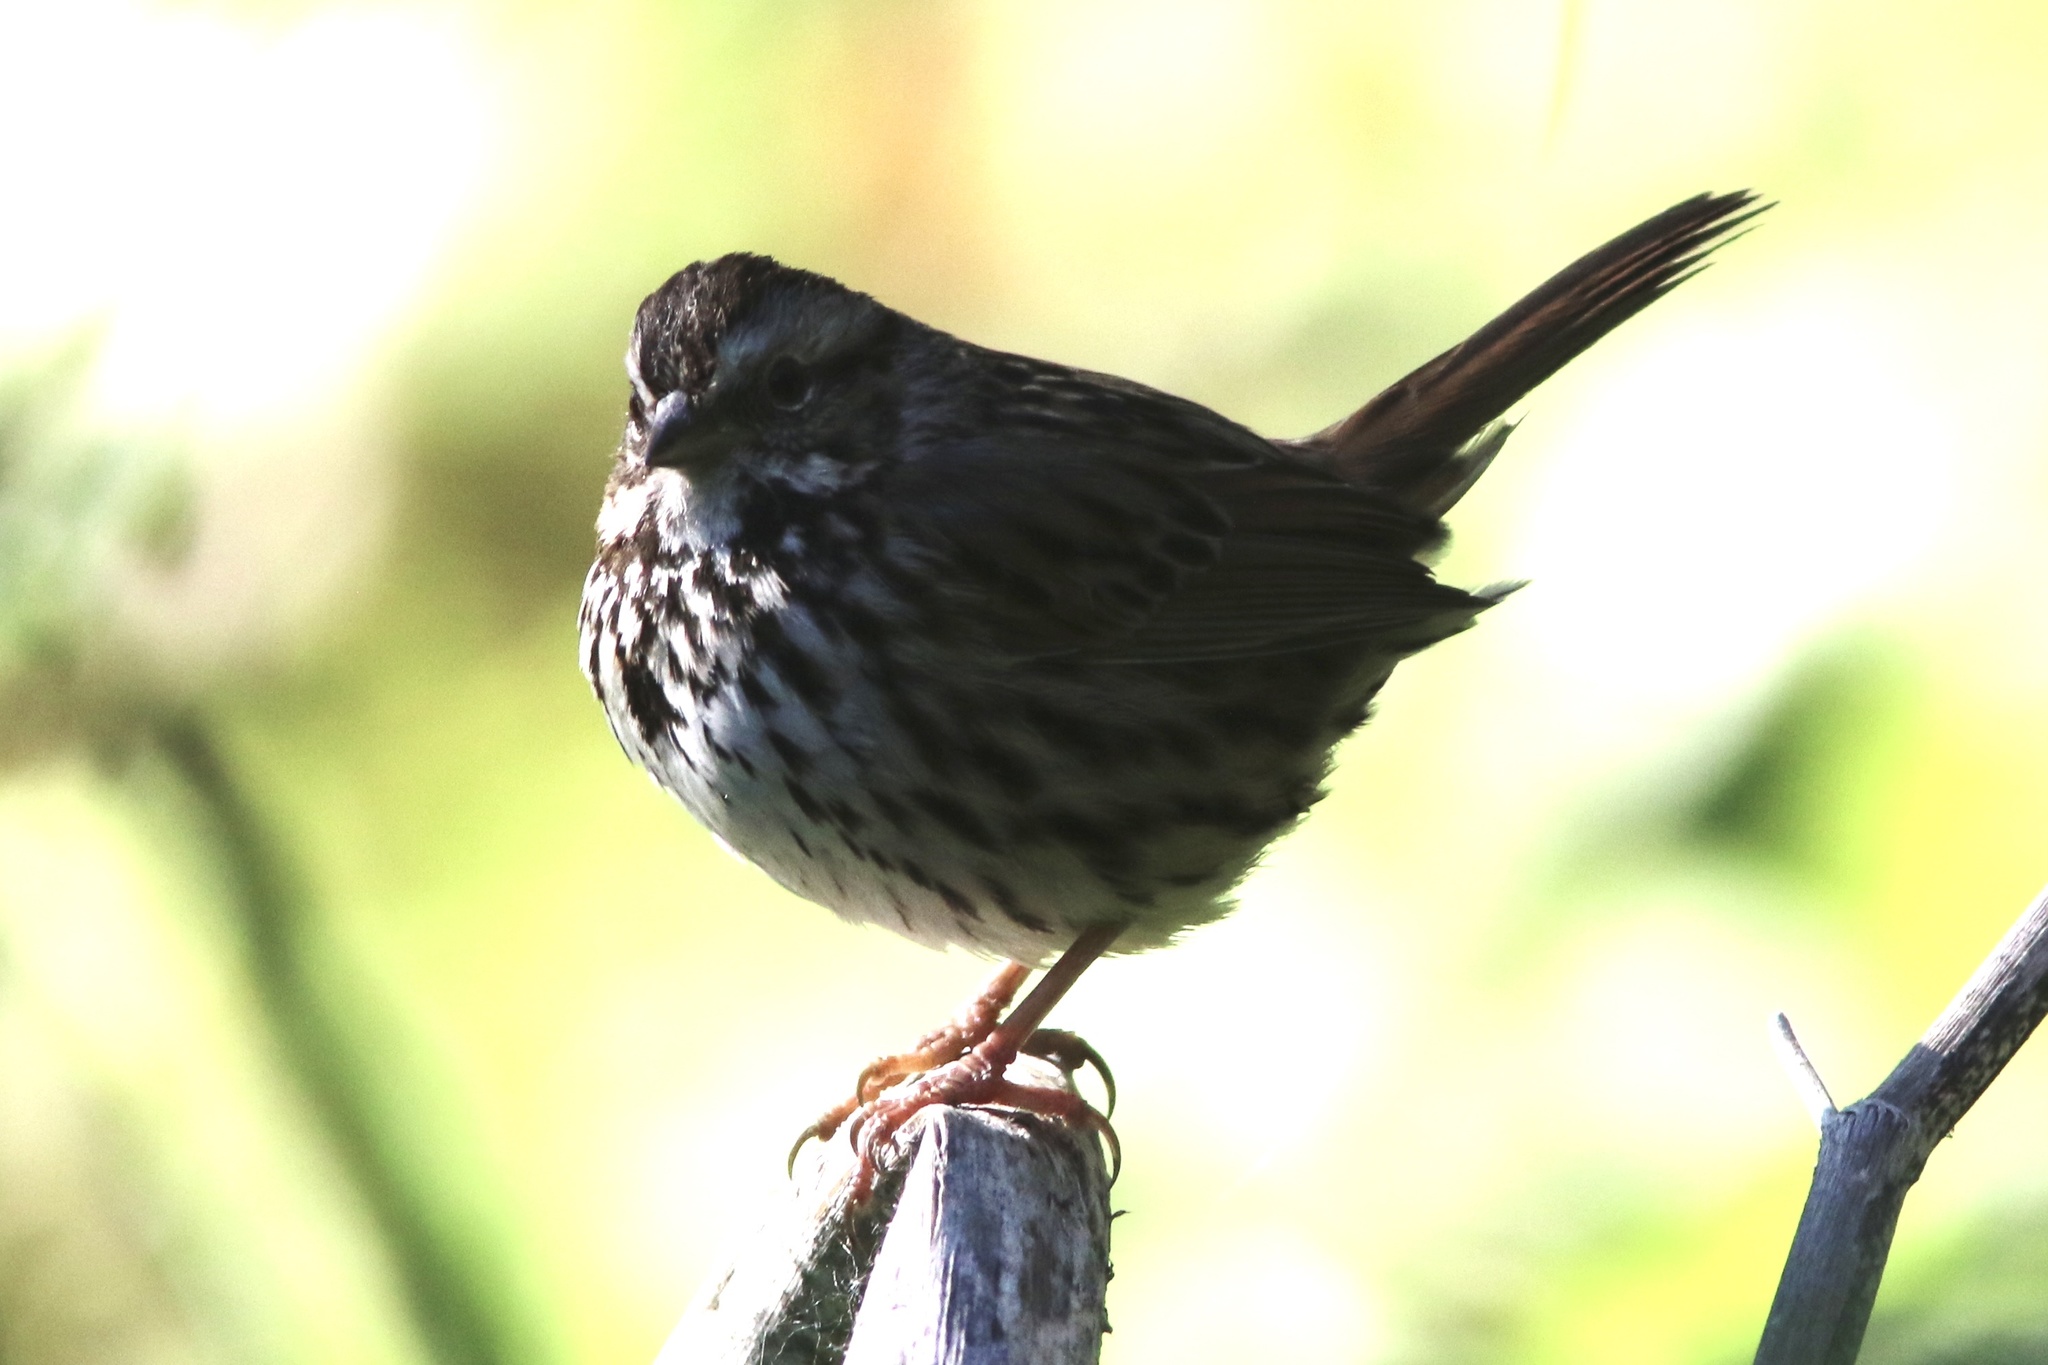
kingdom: Animalia
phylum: Chordata
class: Aves
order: Passeriformes
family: Passerellidae
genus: Melospiza
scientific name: Melospiza melodia
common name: Song sparrow
